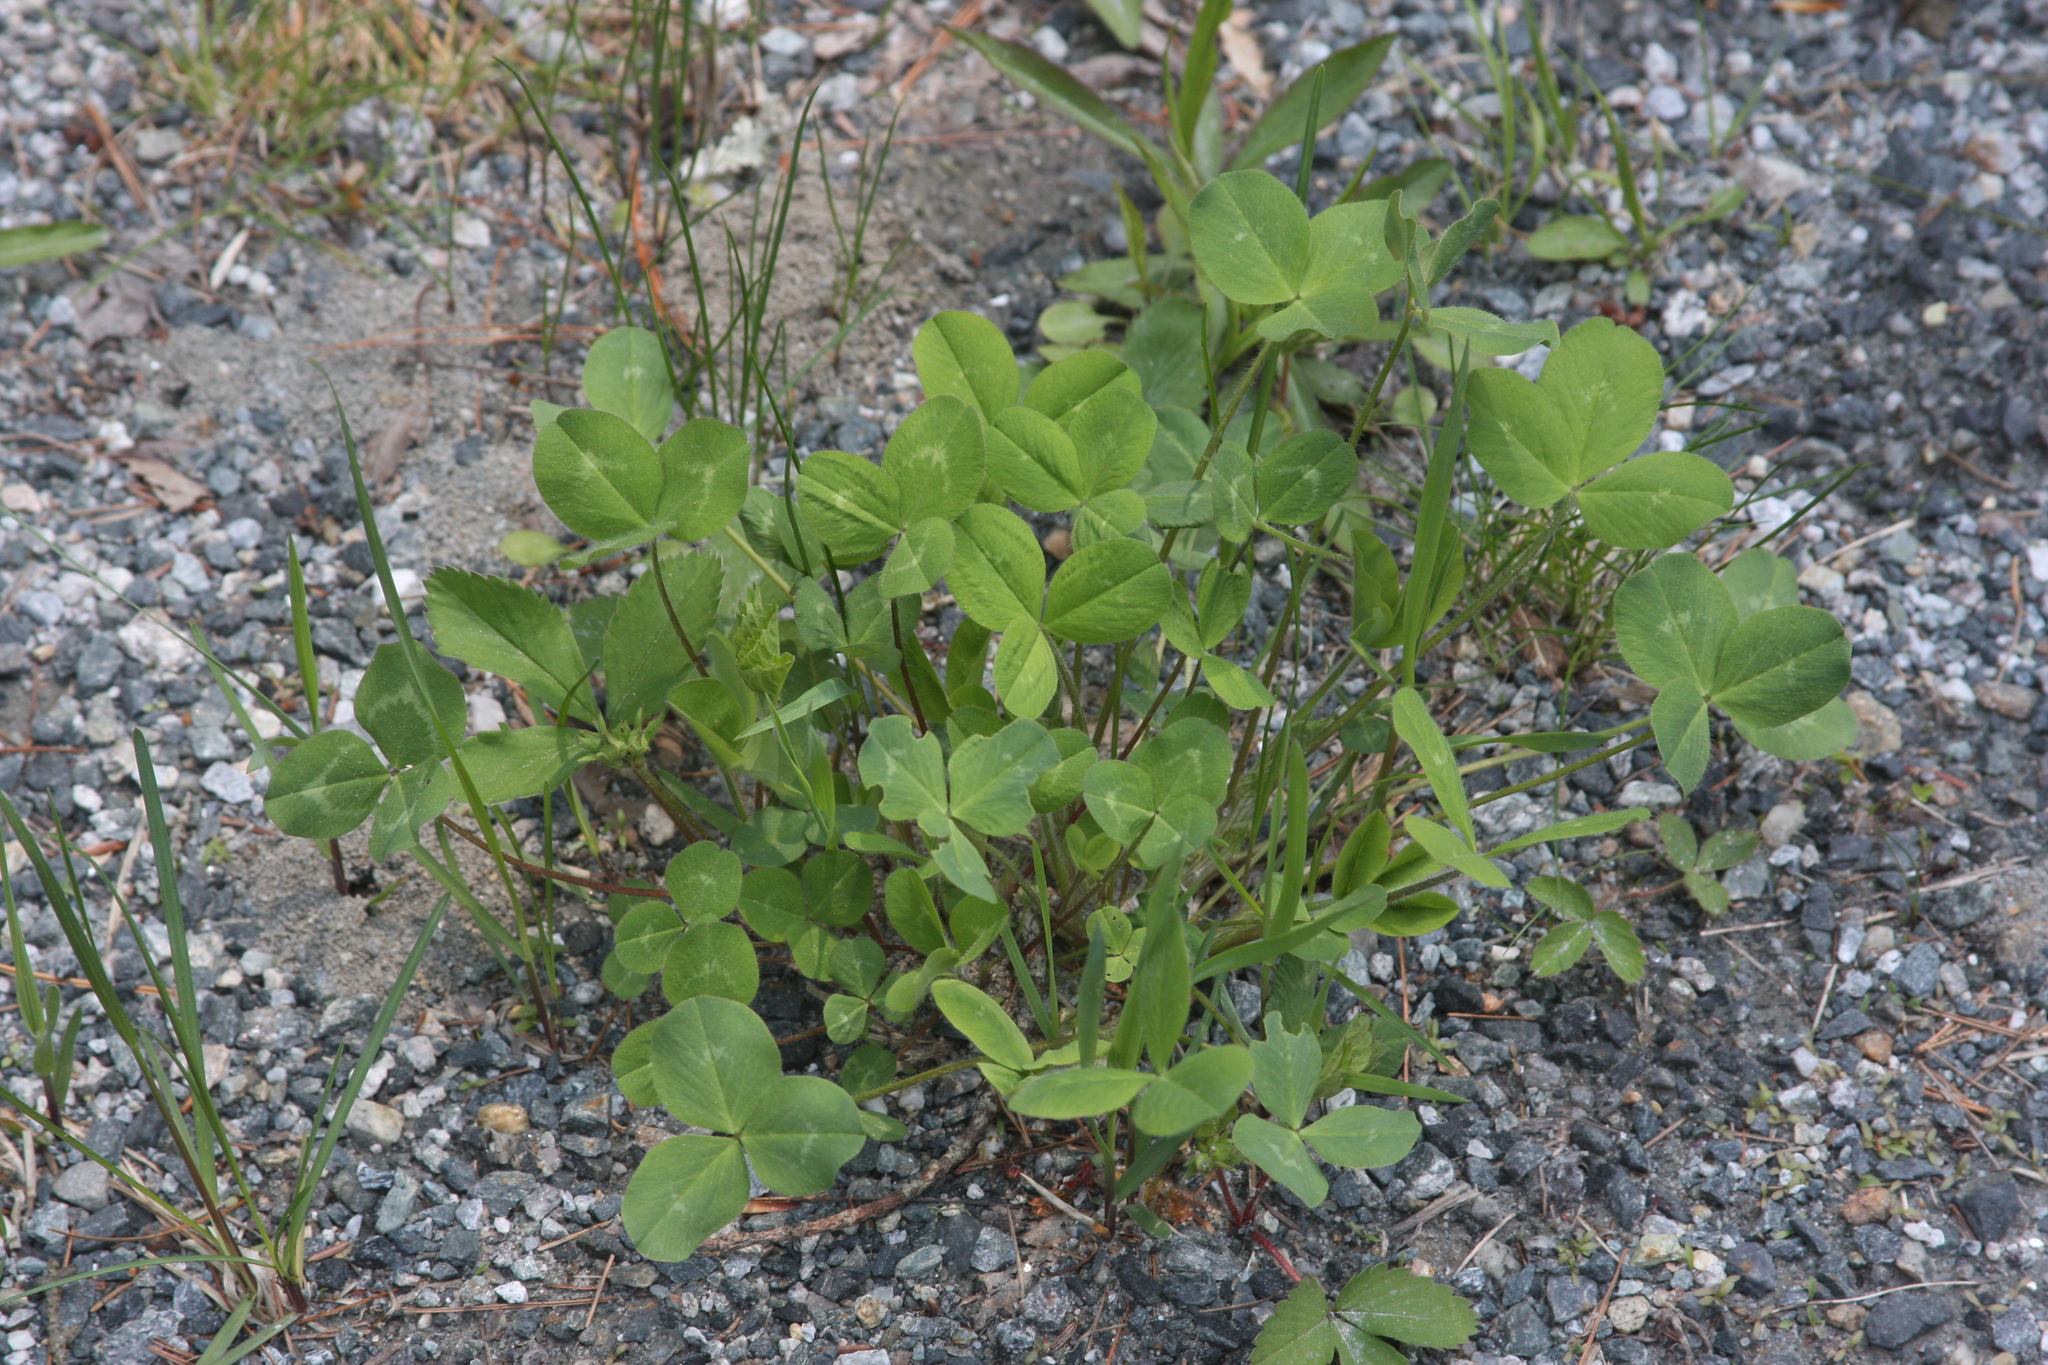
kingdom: Plantae
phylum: Tracheophyta
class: Magnoliopsida
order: Fabales
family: Fabaceae
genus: Trifolium
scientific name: Trifolium pratense
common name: Red clover
